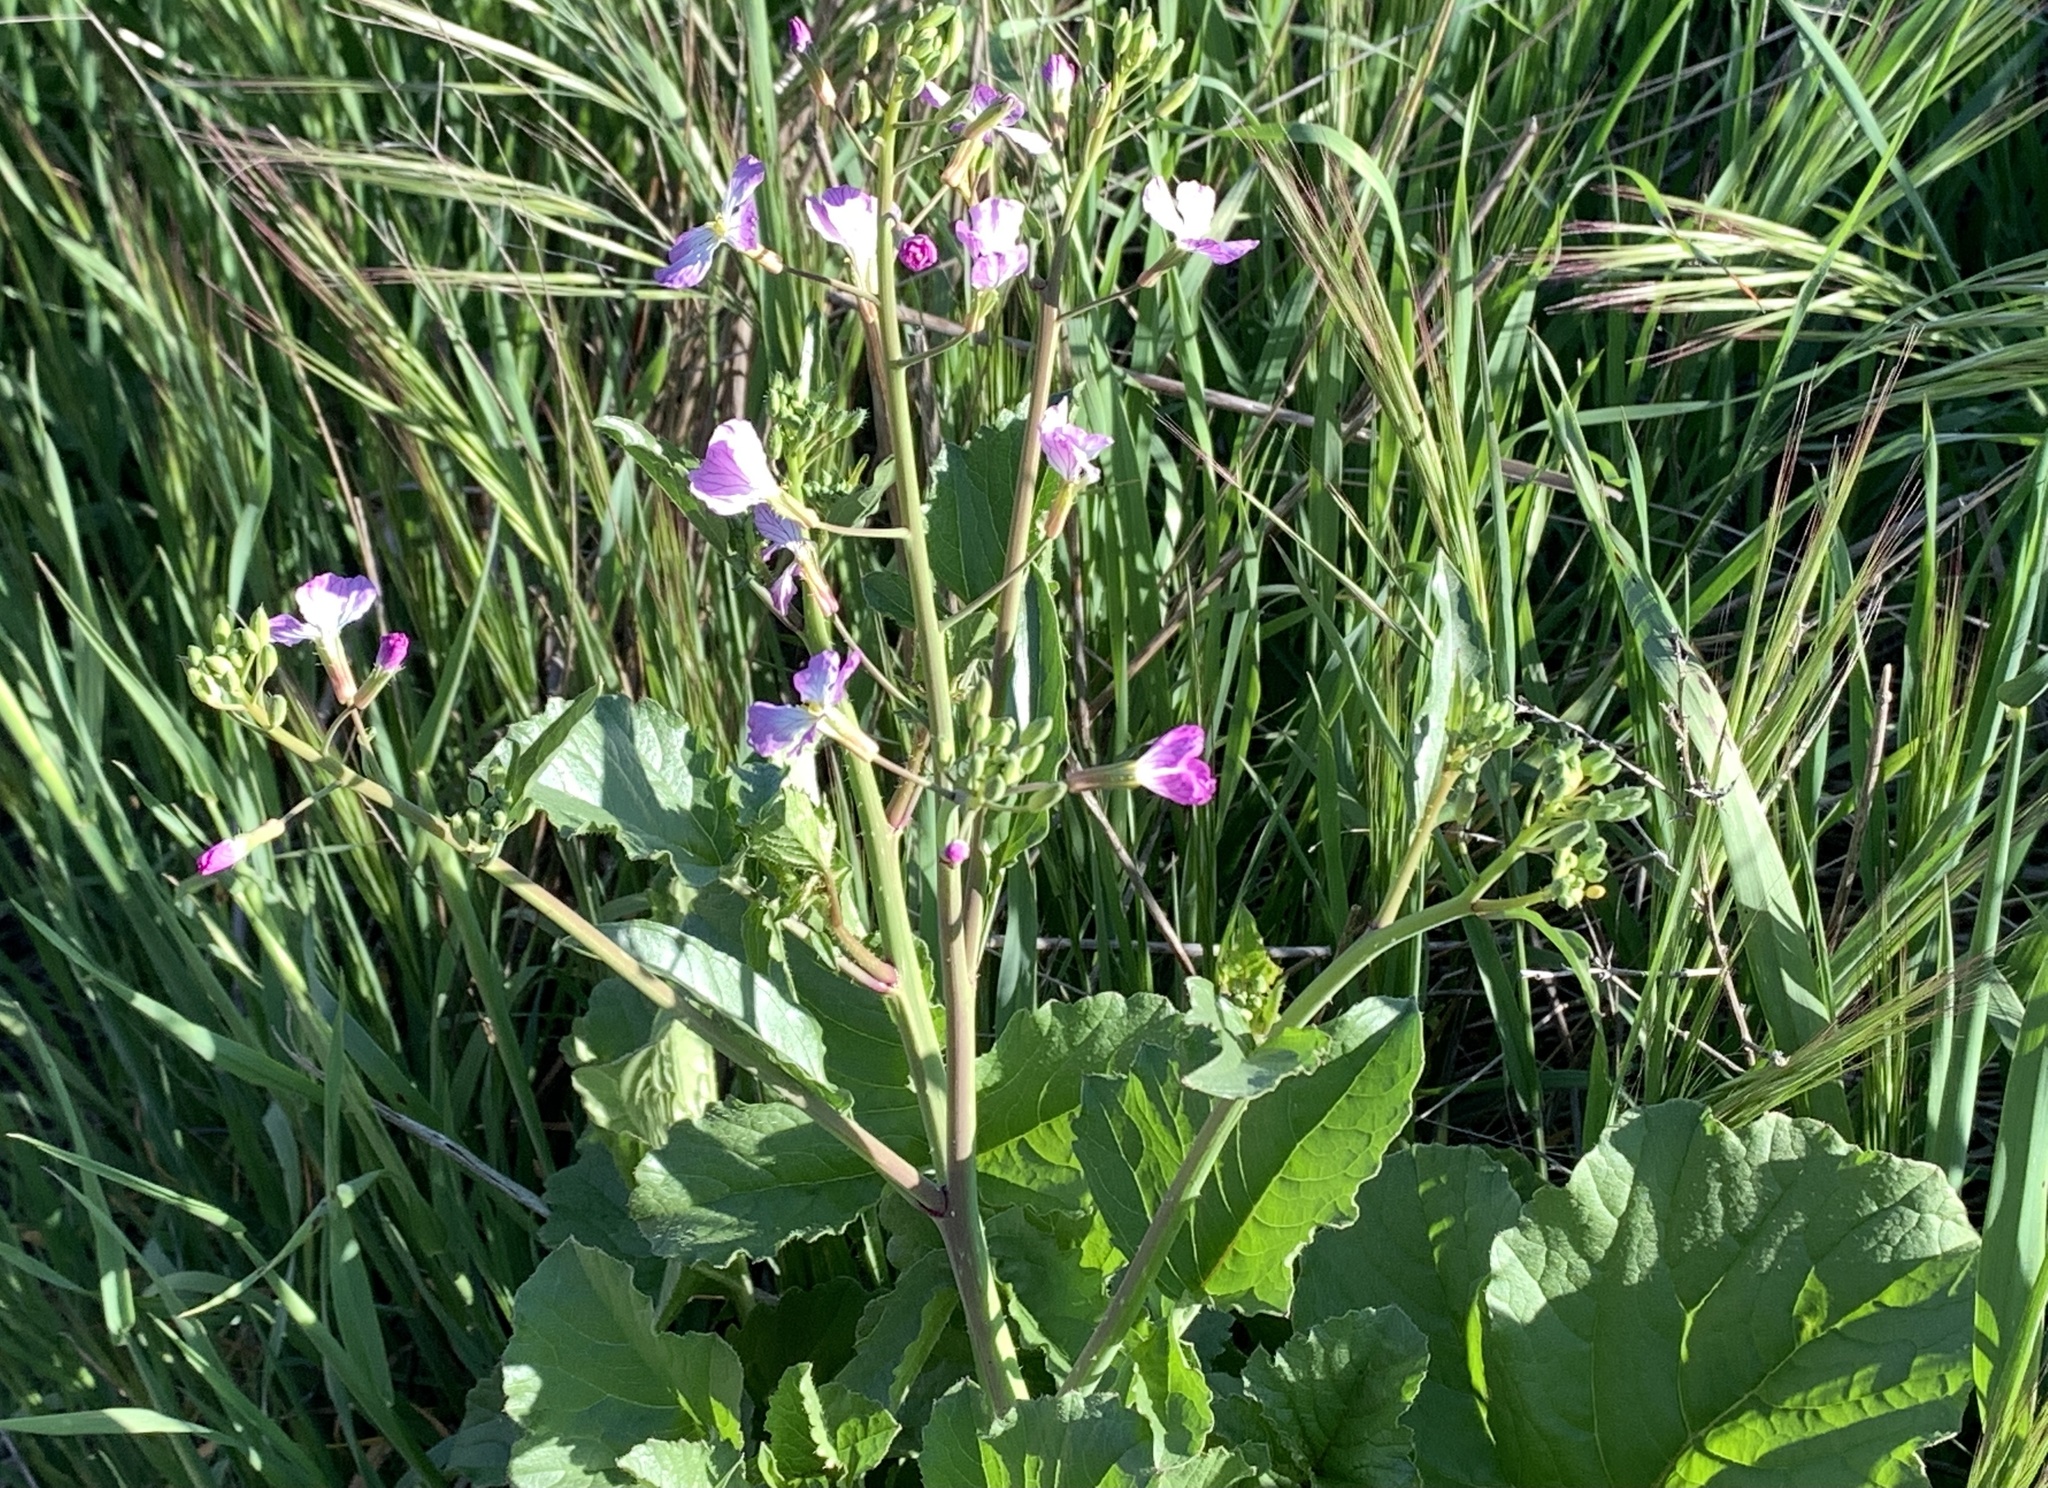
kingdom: Plantae
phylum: Tracheophyta
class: Magnoliopsida
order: Brassicales
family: Brassicaceae
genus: Raphanus
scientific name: Raphanus sativus
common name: Cultivated radish
